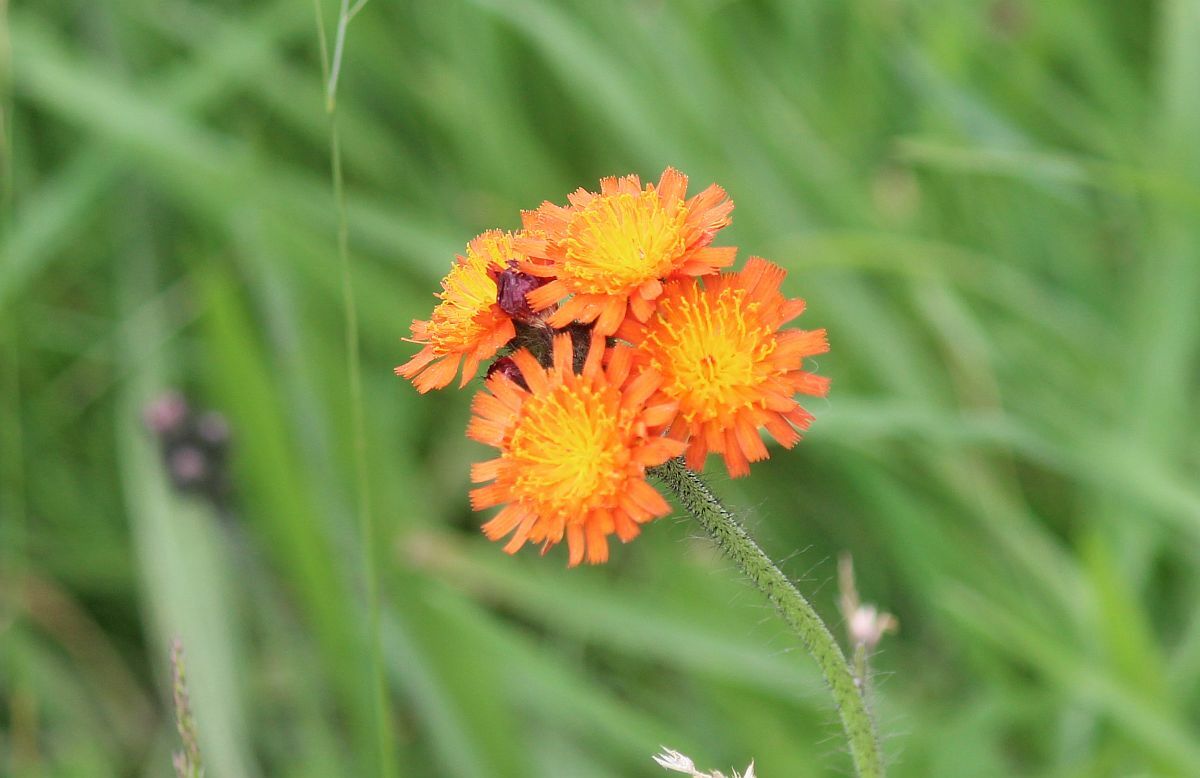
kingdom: Plantae
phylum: Tracheophyta
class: Magnoliopsida
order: Asterales
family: Asteraceae
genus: Pilosella
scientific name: Pilosella aurantiaca
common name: Fox-and-cubs
